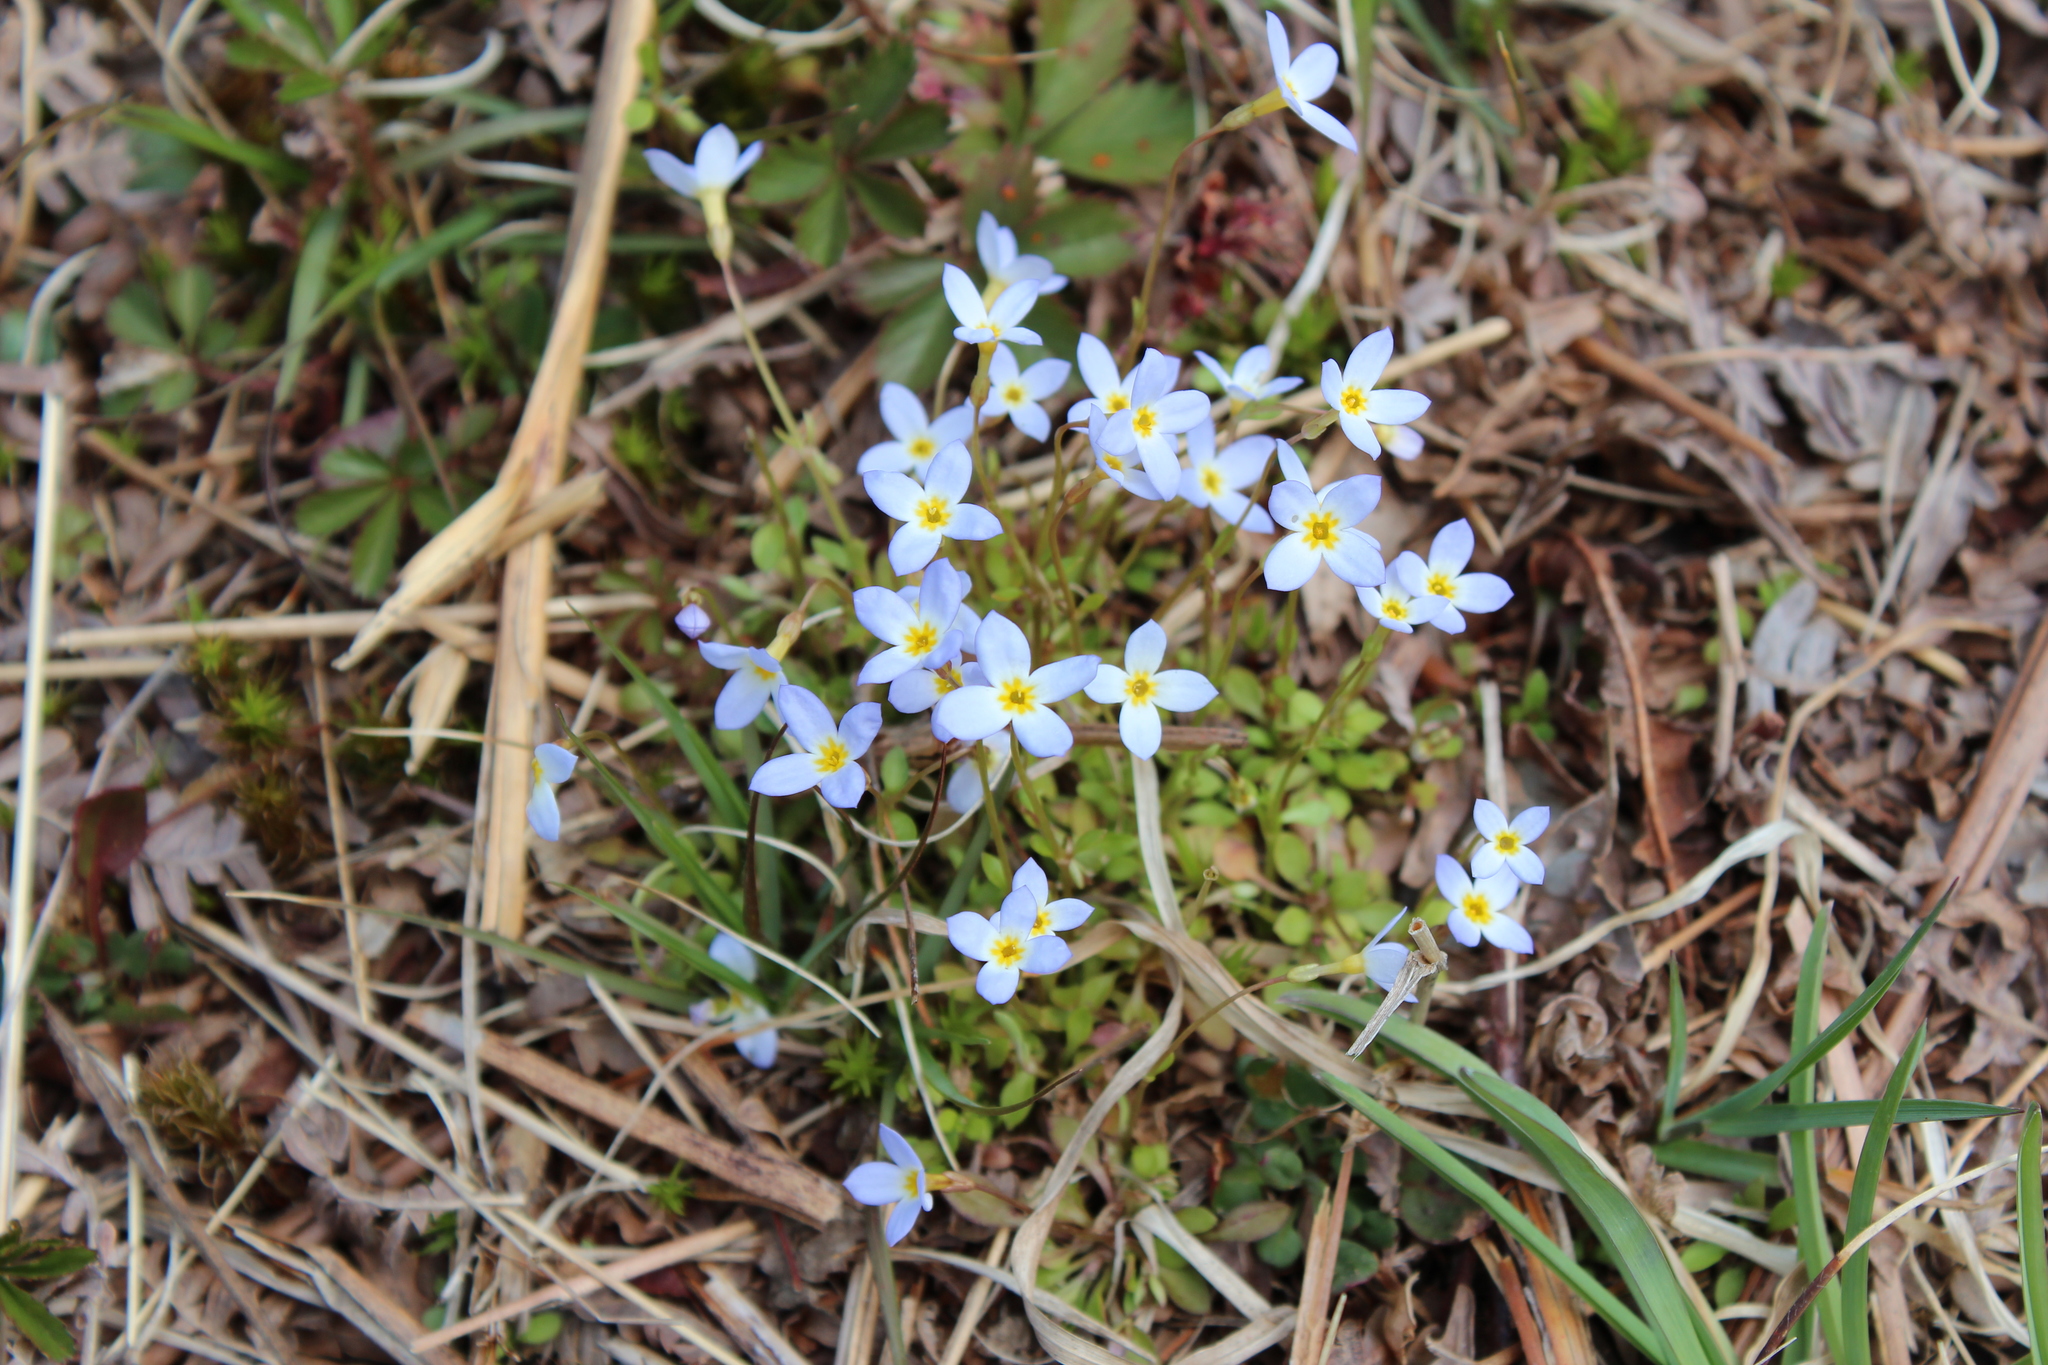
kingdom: Plantae
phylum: Tracheophyta
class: Magnoliopsida
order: Gentianales
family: Rubiaceae
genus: Houstonia
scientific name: Houstonia caerulea
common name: Bluets
